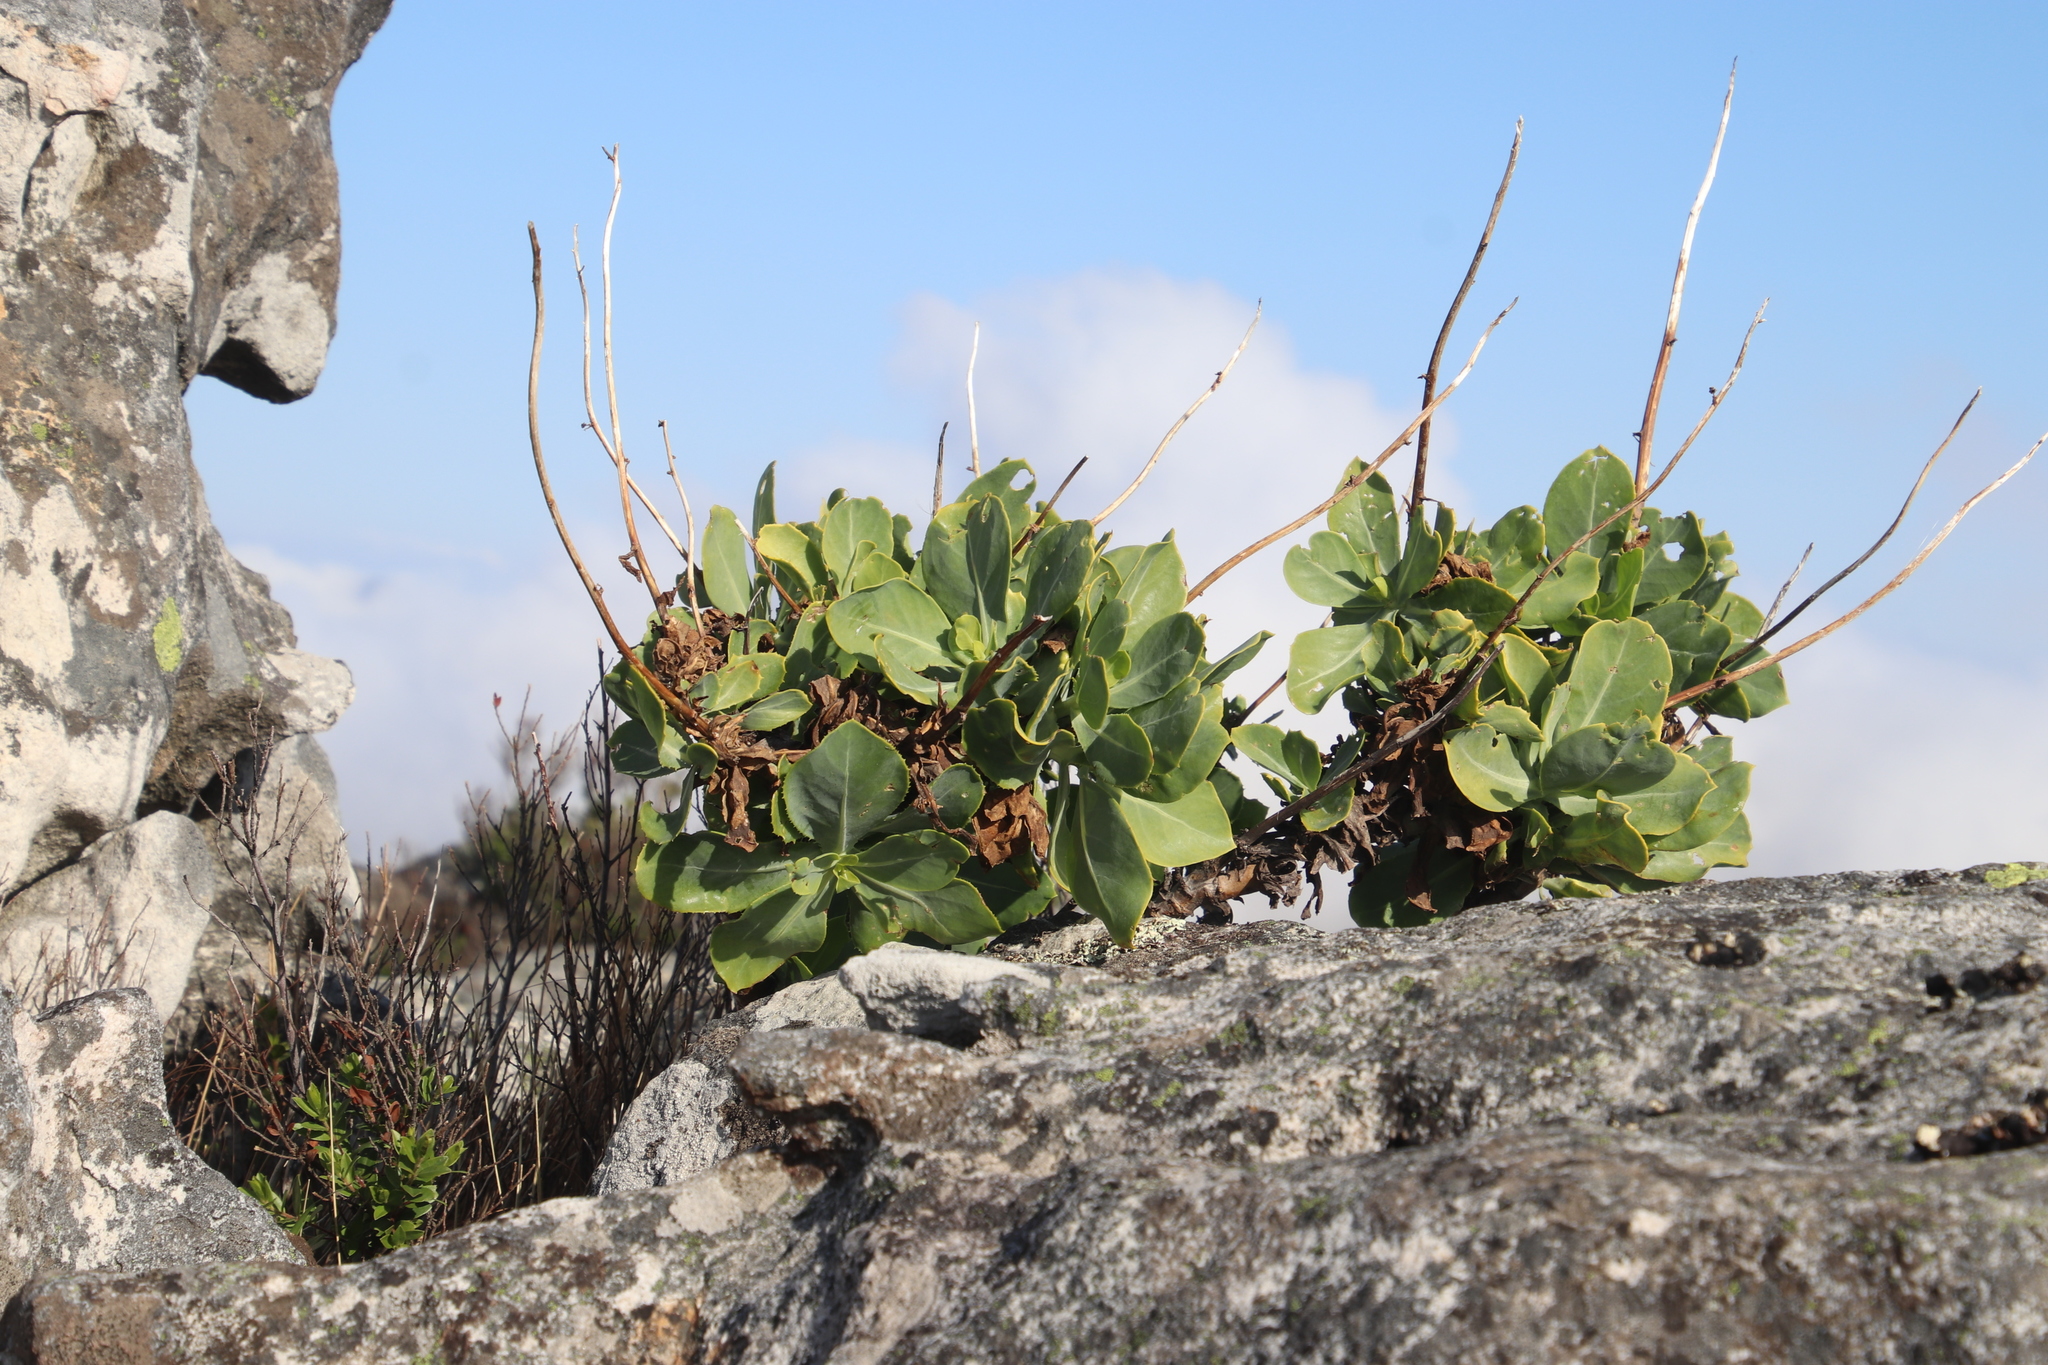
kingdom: Plantae
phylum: Tracheophyta
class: Magnoliopsida
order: Asterales
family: Asteraceae
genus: Othonna
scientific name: Othonna parviflora
